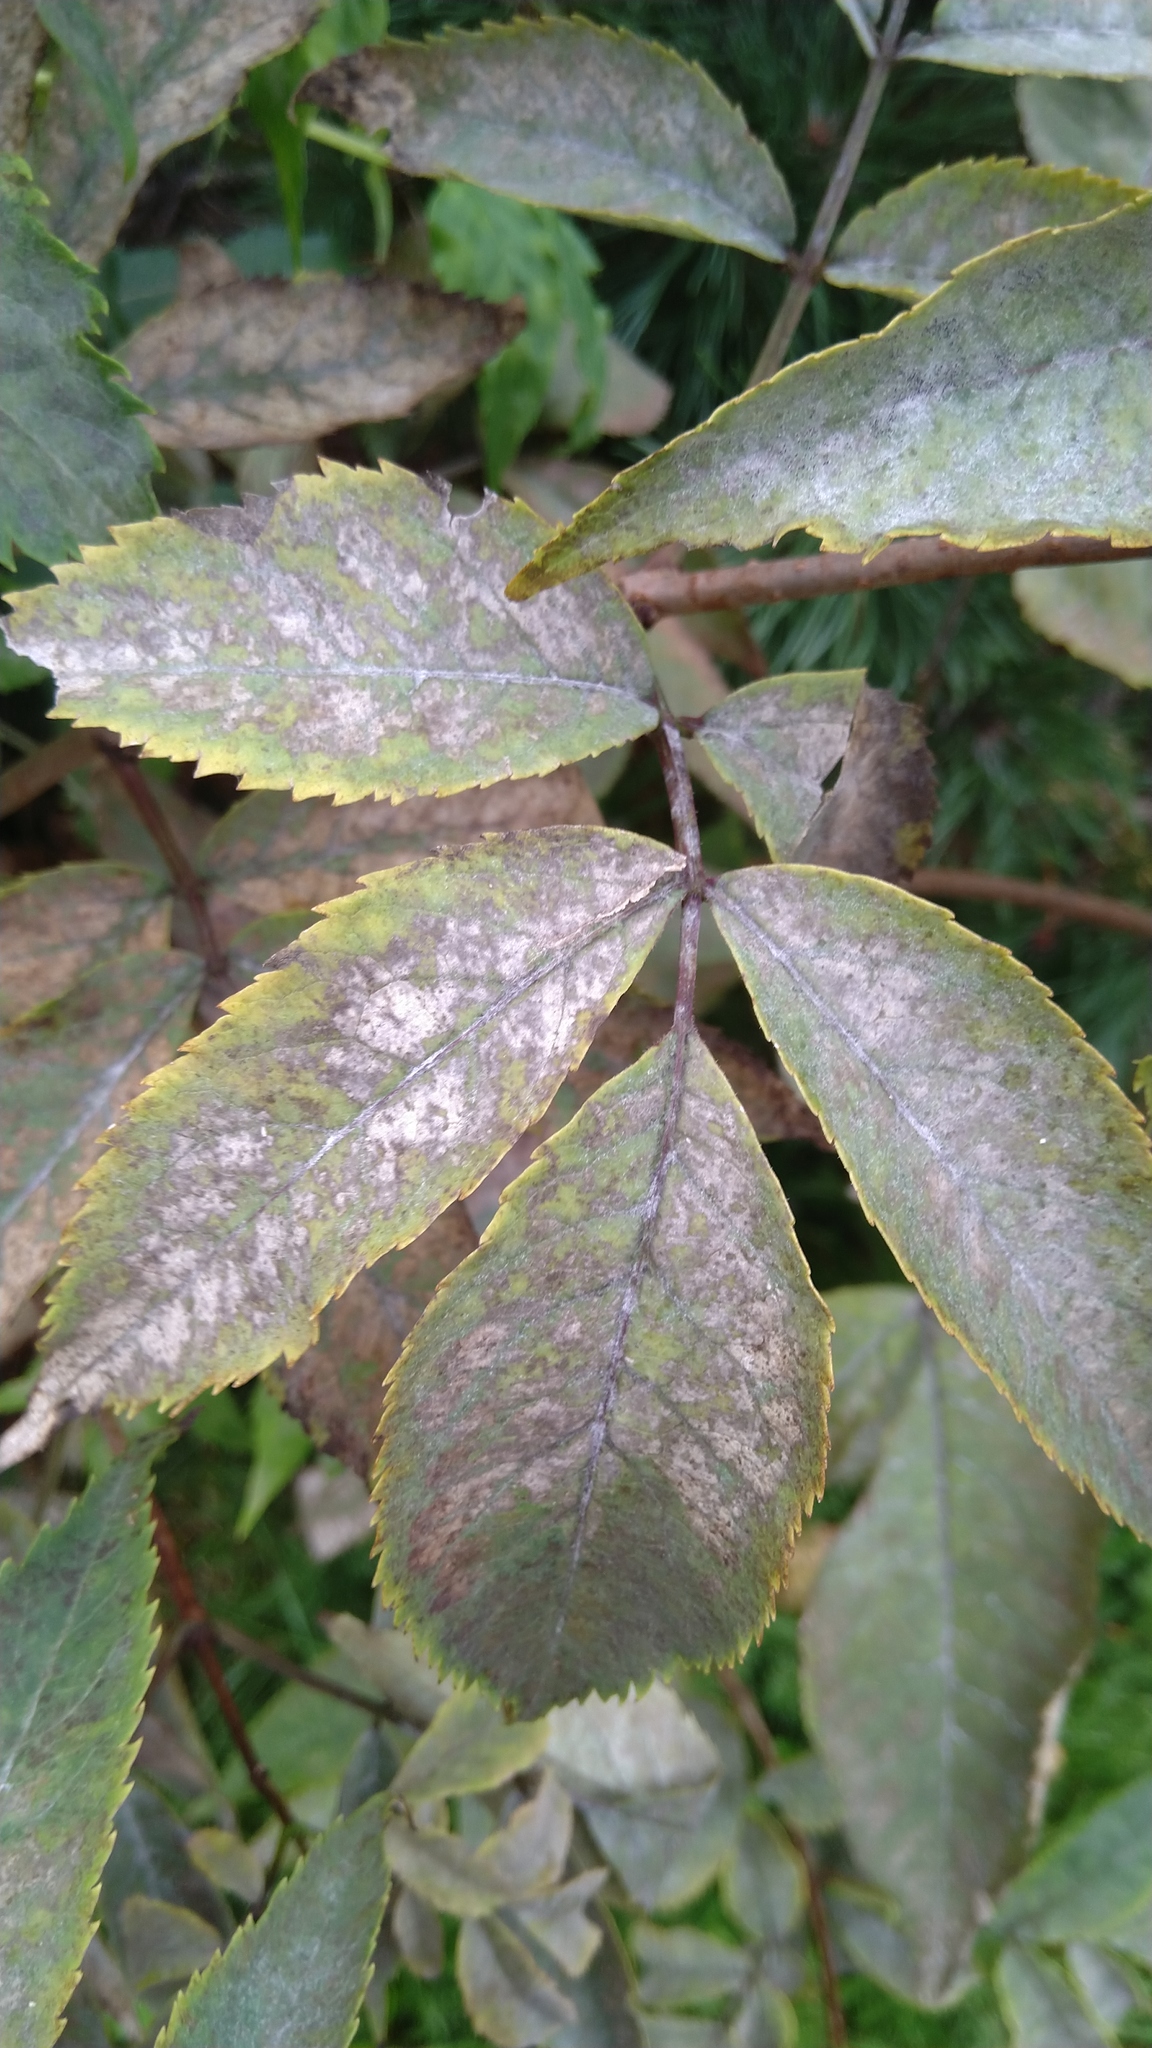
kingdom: Fungi
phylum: Ascomycota
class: Leotiomycetes
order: Helotiales
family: Erysiphaceae
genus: Erysiphe
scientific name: Erysiphe sambuci
